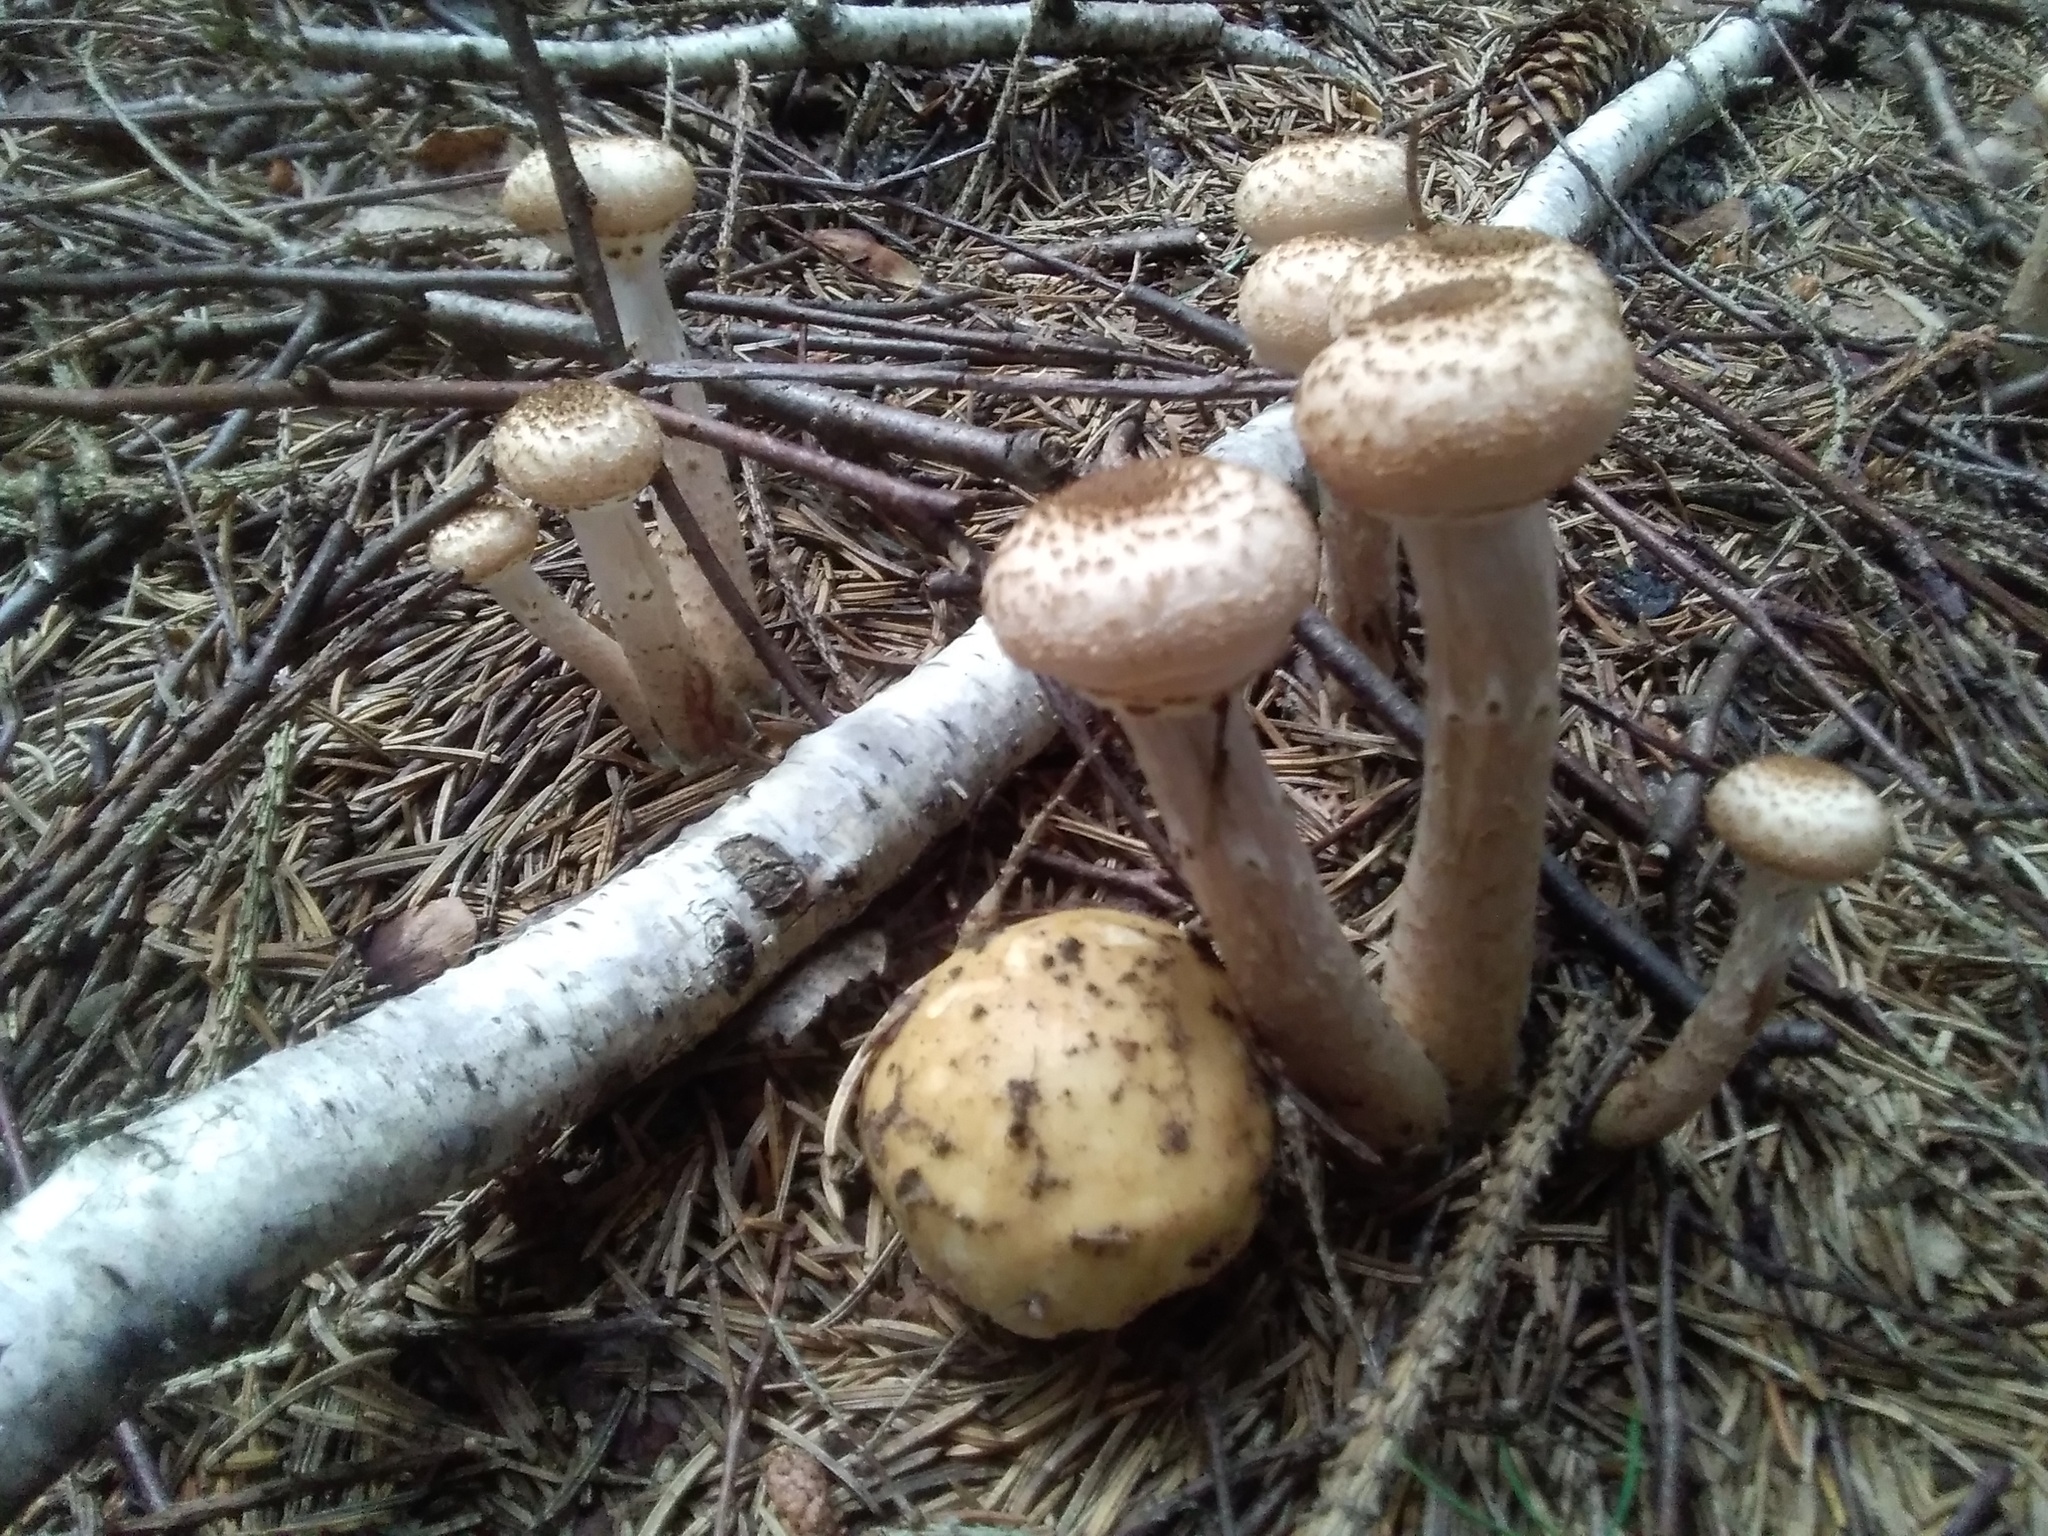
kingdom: Fungi
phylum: Basidiomycota
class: Agaricomycetes
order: Agaricales
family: Physalacriaceae
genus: Armillaria
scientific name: Armillaria mellea
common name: Honey fungus
